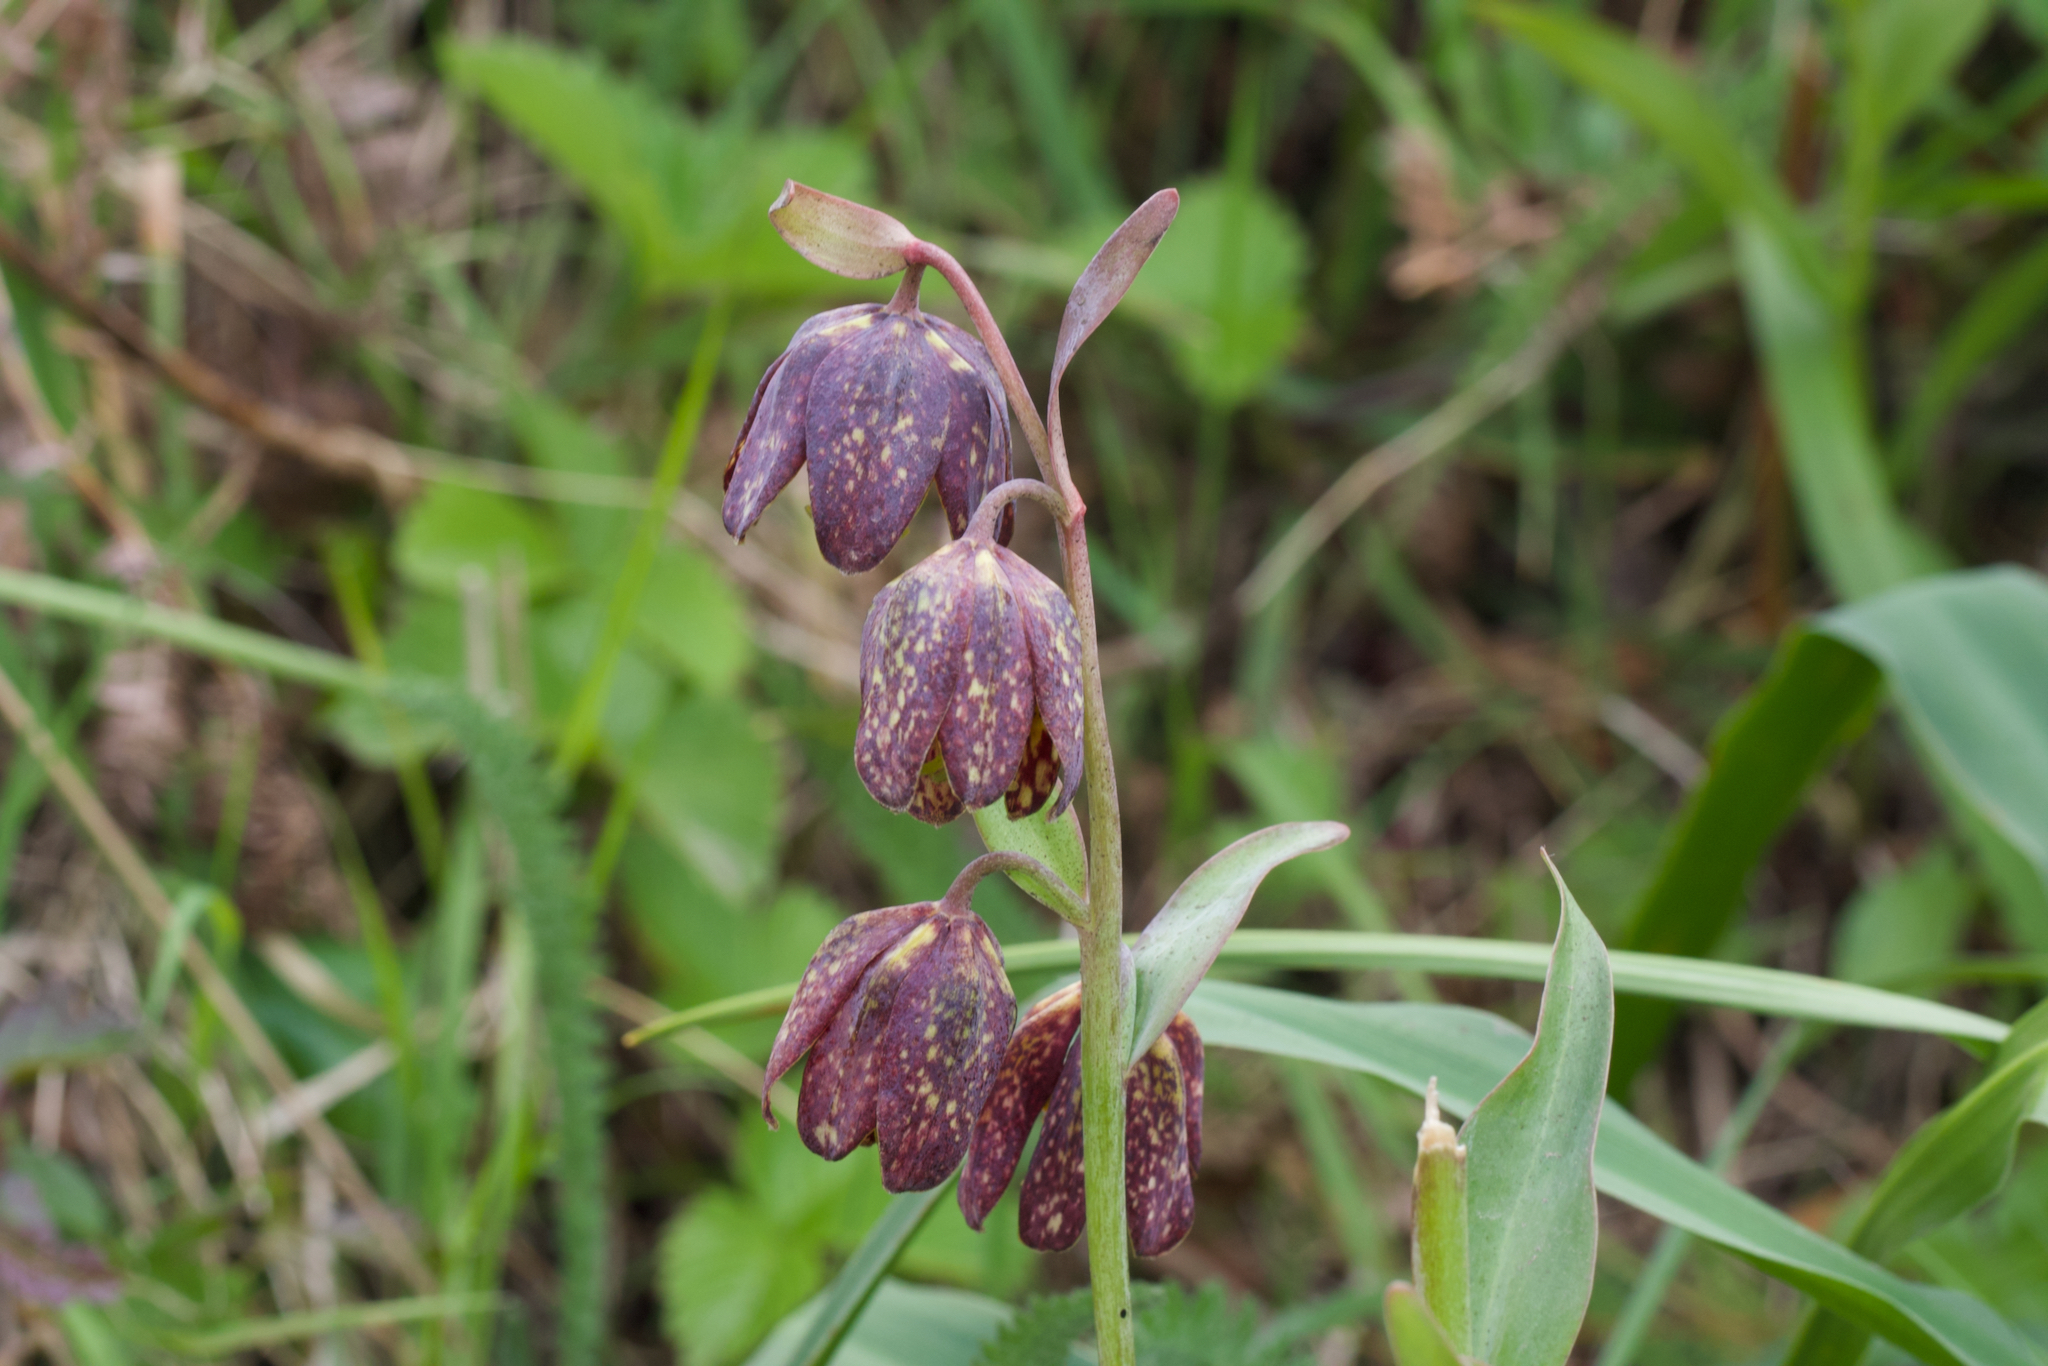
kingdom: Plantae
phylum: Tracheophyta
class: Liliopsida
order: Liliales
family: Liliaceae
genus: Fritillaria
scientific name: Fritillaria affinis
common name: Ojai fritillary
